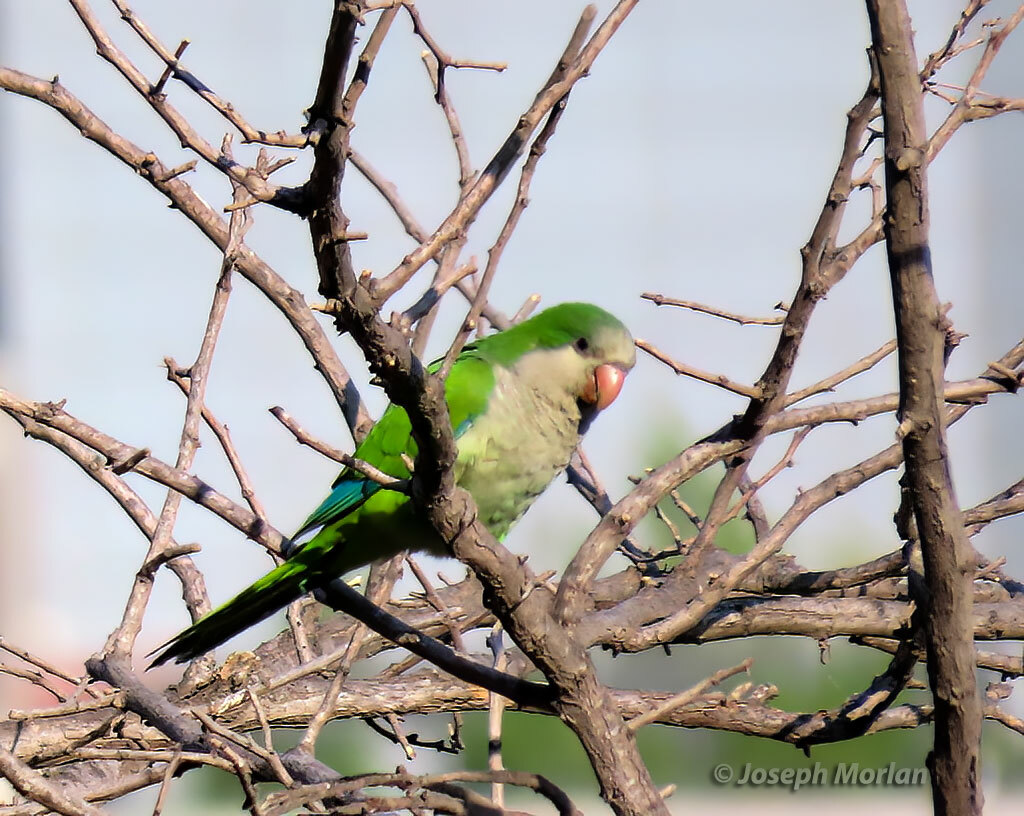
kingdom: Animalia
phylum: Chordata
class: Aves
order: Psittaciformes
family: Psittacidae
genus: Myiopsitta
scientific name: Myiopsitta monachus
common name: Monk parakeet
